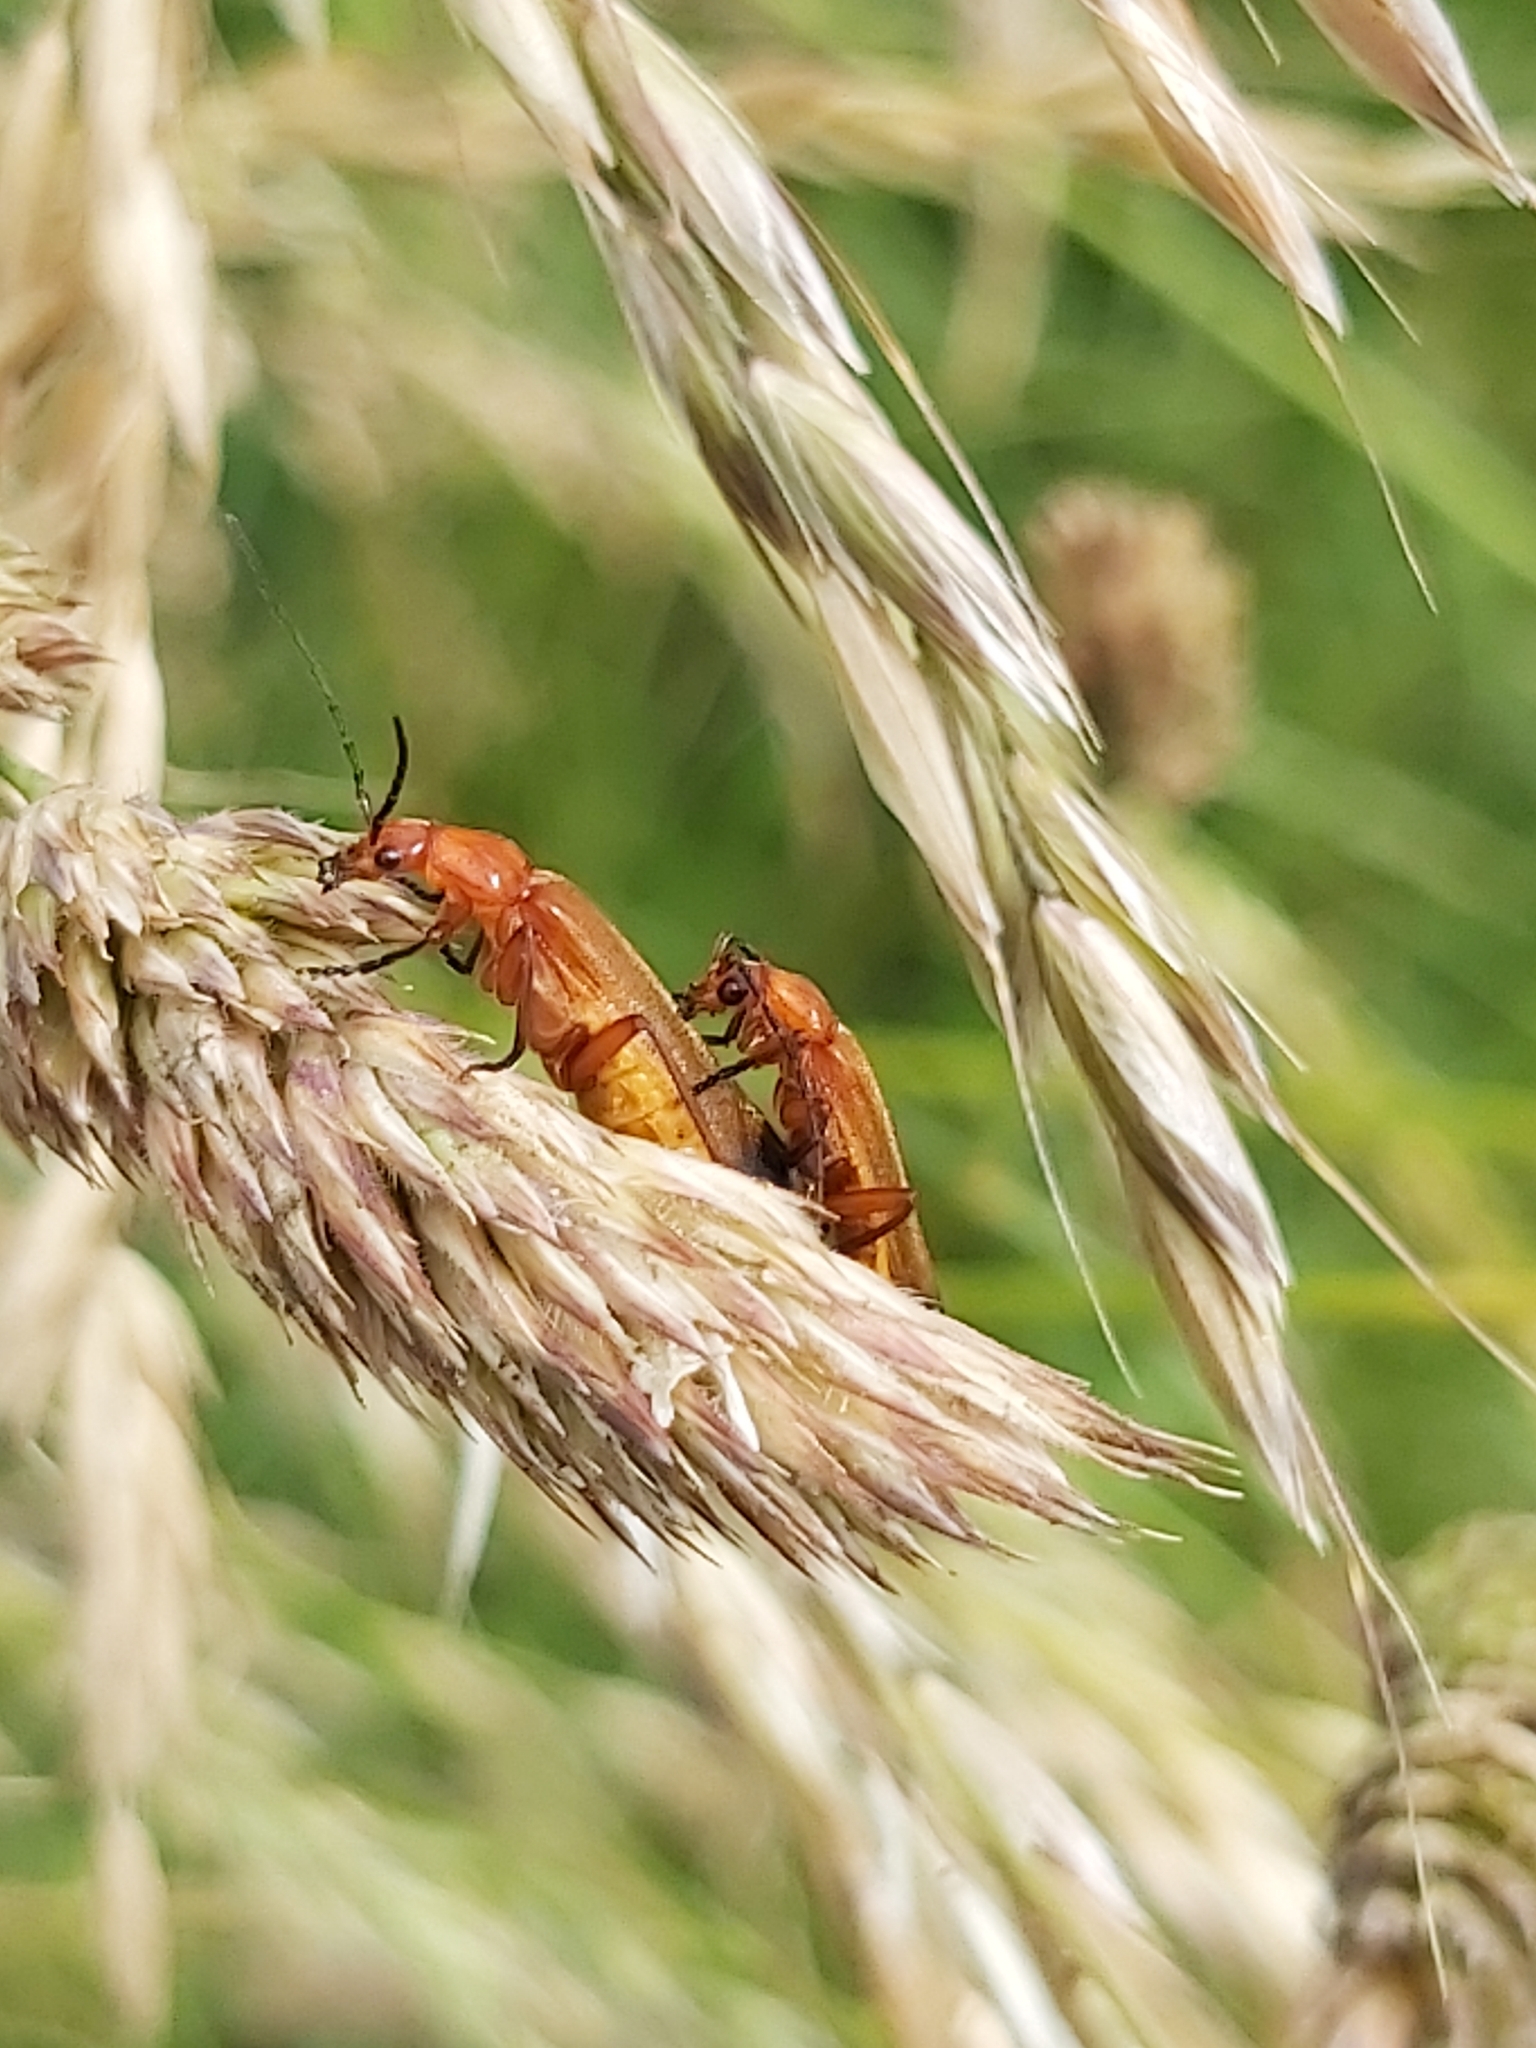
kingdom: Animalia
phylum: Arthropoda
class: Insecta
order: Coleoptera
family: Cantharidae
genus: Rhagonycha
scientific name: Rhagonycha fulva
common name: Common red soldier beetle
